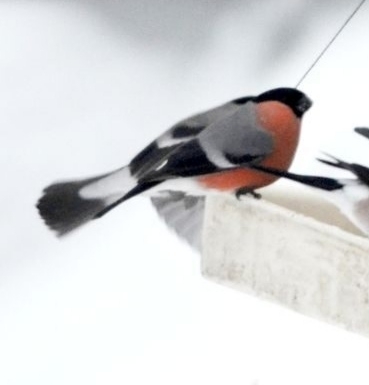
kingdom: Animalia
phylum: Chordata
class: Aves
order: Passeriformes
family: Fringillidae
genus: Pyrrhula
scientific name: Pyrrhula pyrrhula
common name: Eurasian bullfinch
